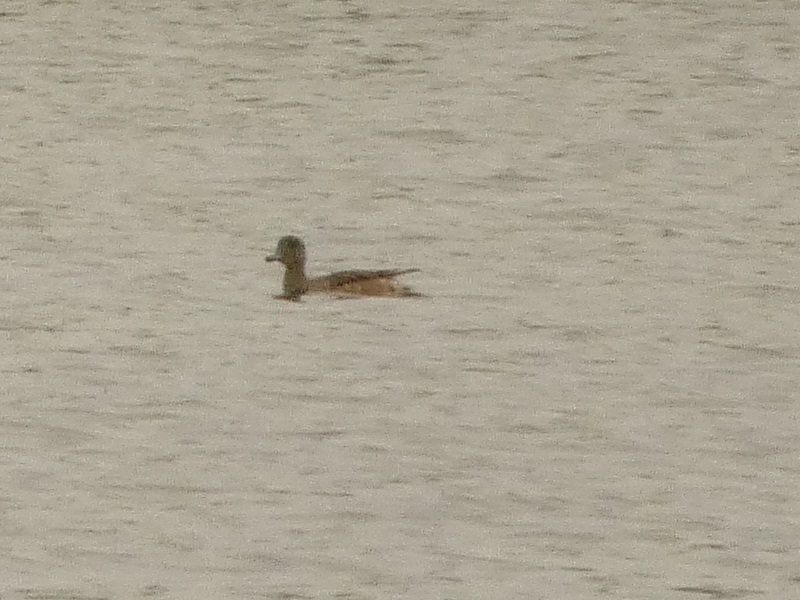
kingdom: Animalia
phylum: Chordata
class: Aves
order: Anseriformes
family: Anatidae
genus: Mareca
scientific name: Mareca penelope
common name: Eurasian wigeon
